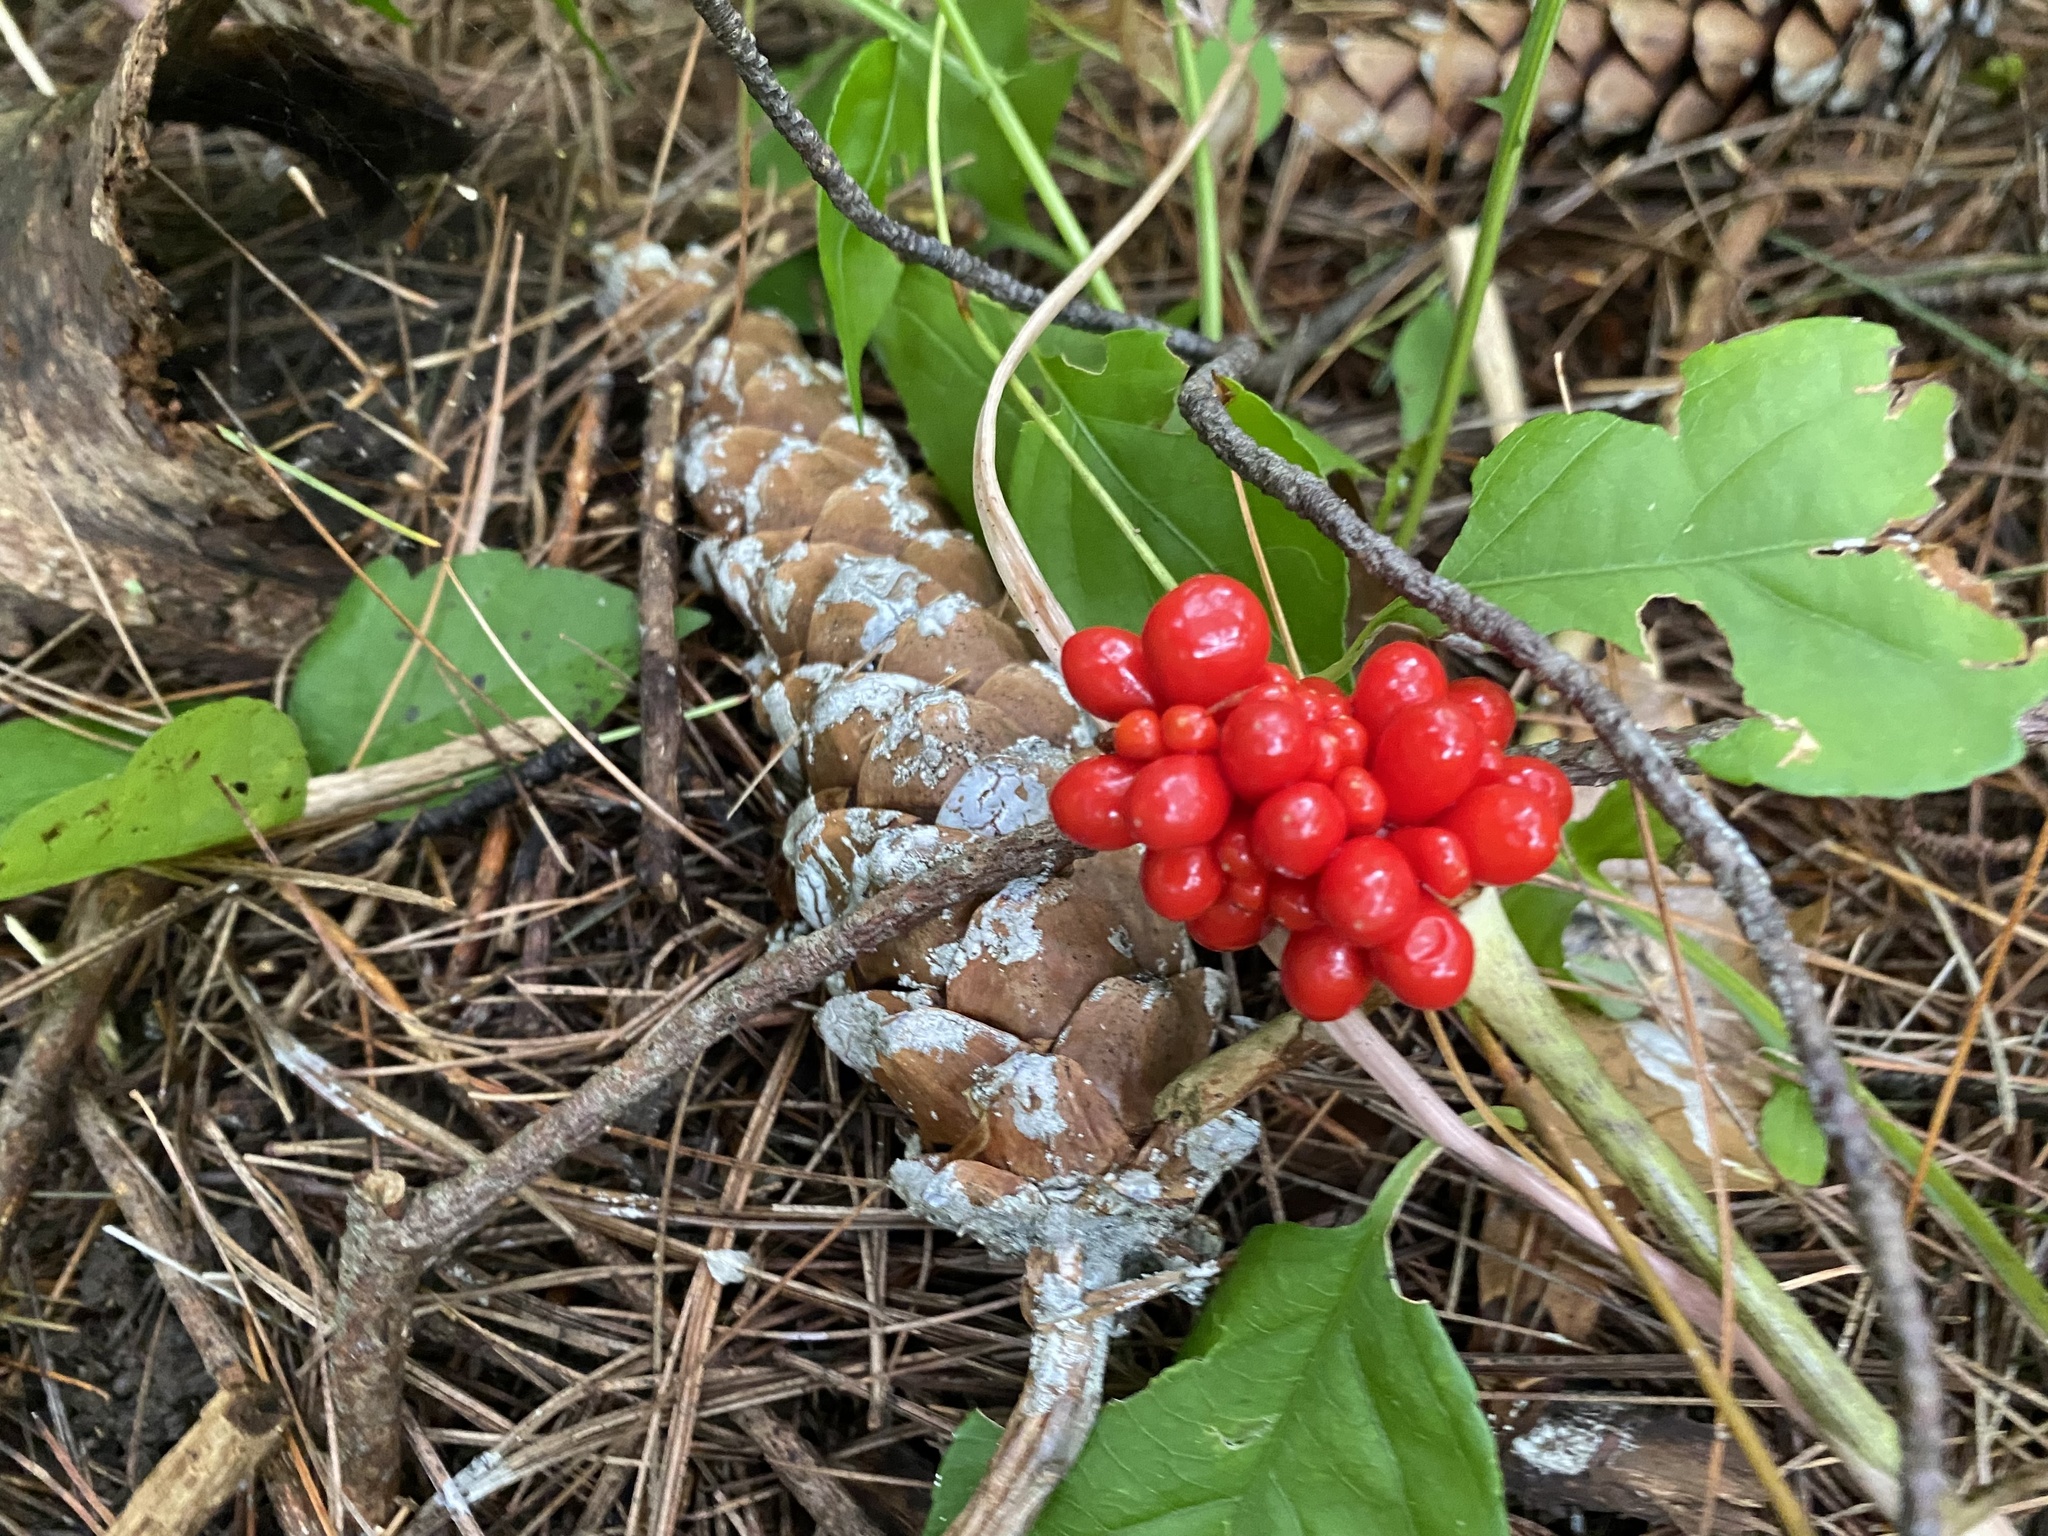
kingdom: Plantae
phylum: Tracheophyta
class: Liliopsida
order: Alismatales
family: Araceae
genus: Arisaema
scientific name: Arisaema triphyllum
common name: Jack-in-the-pulpit
